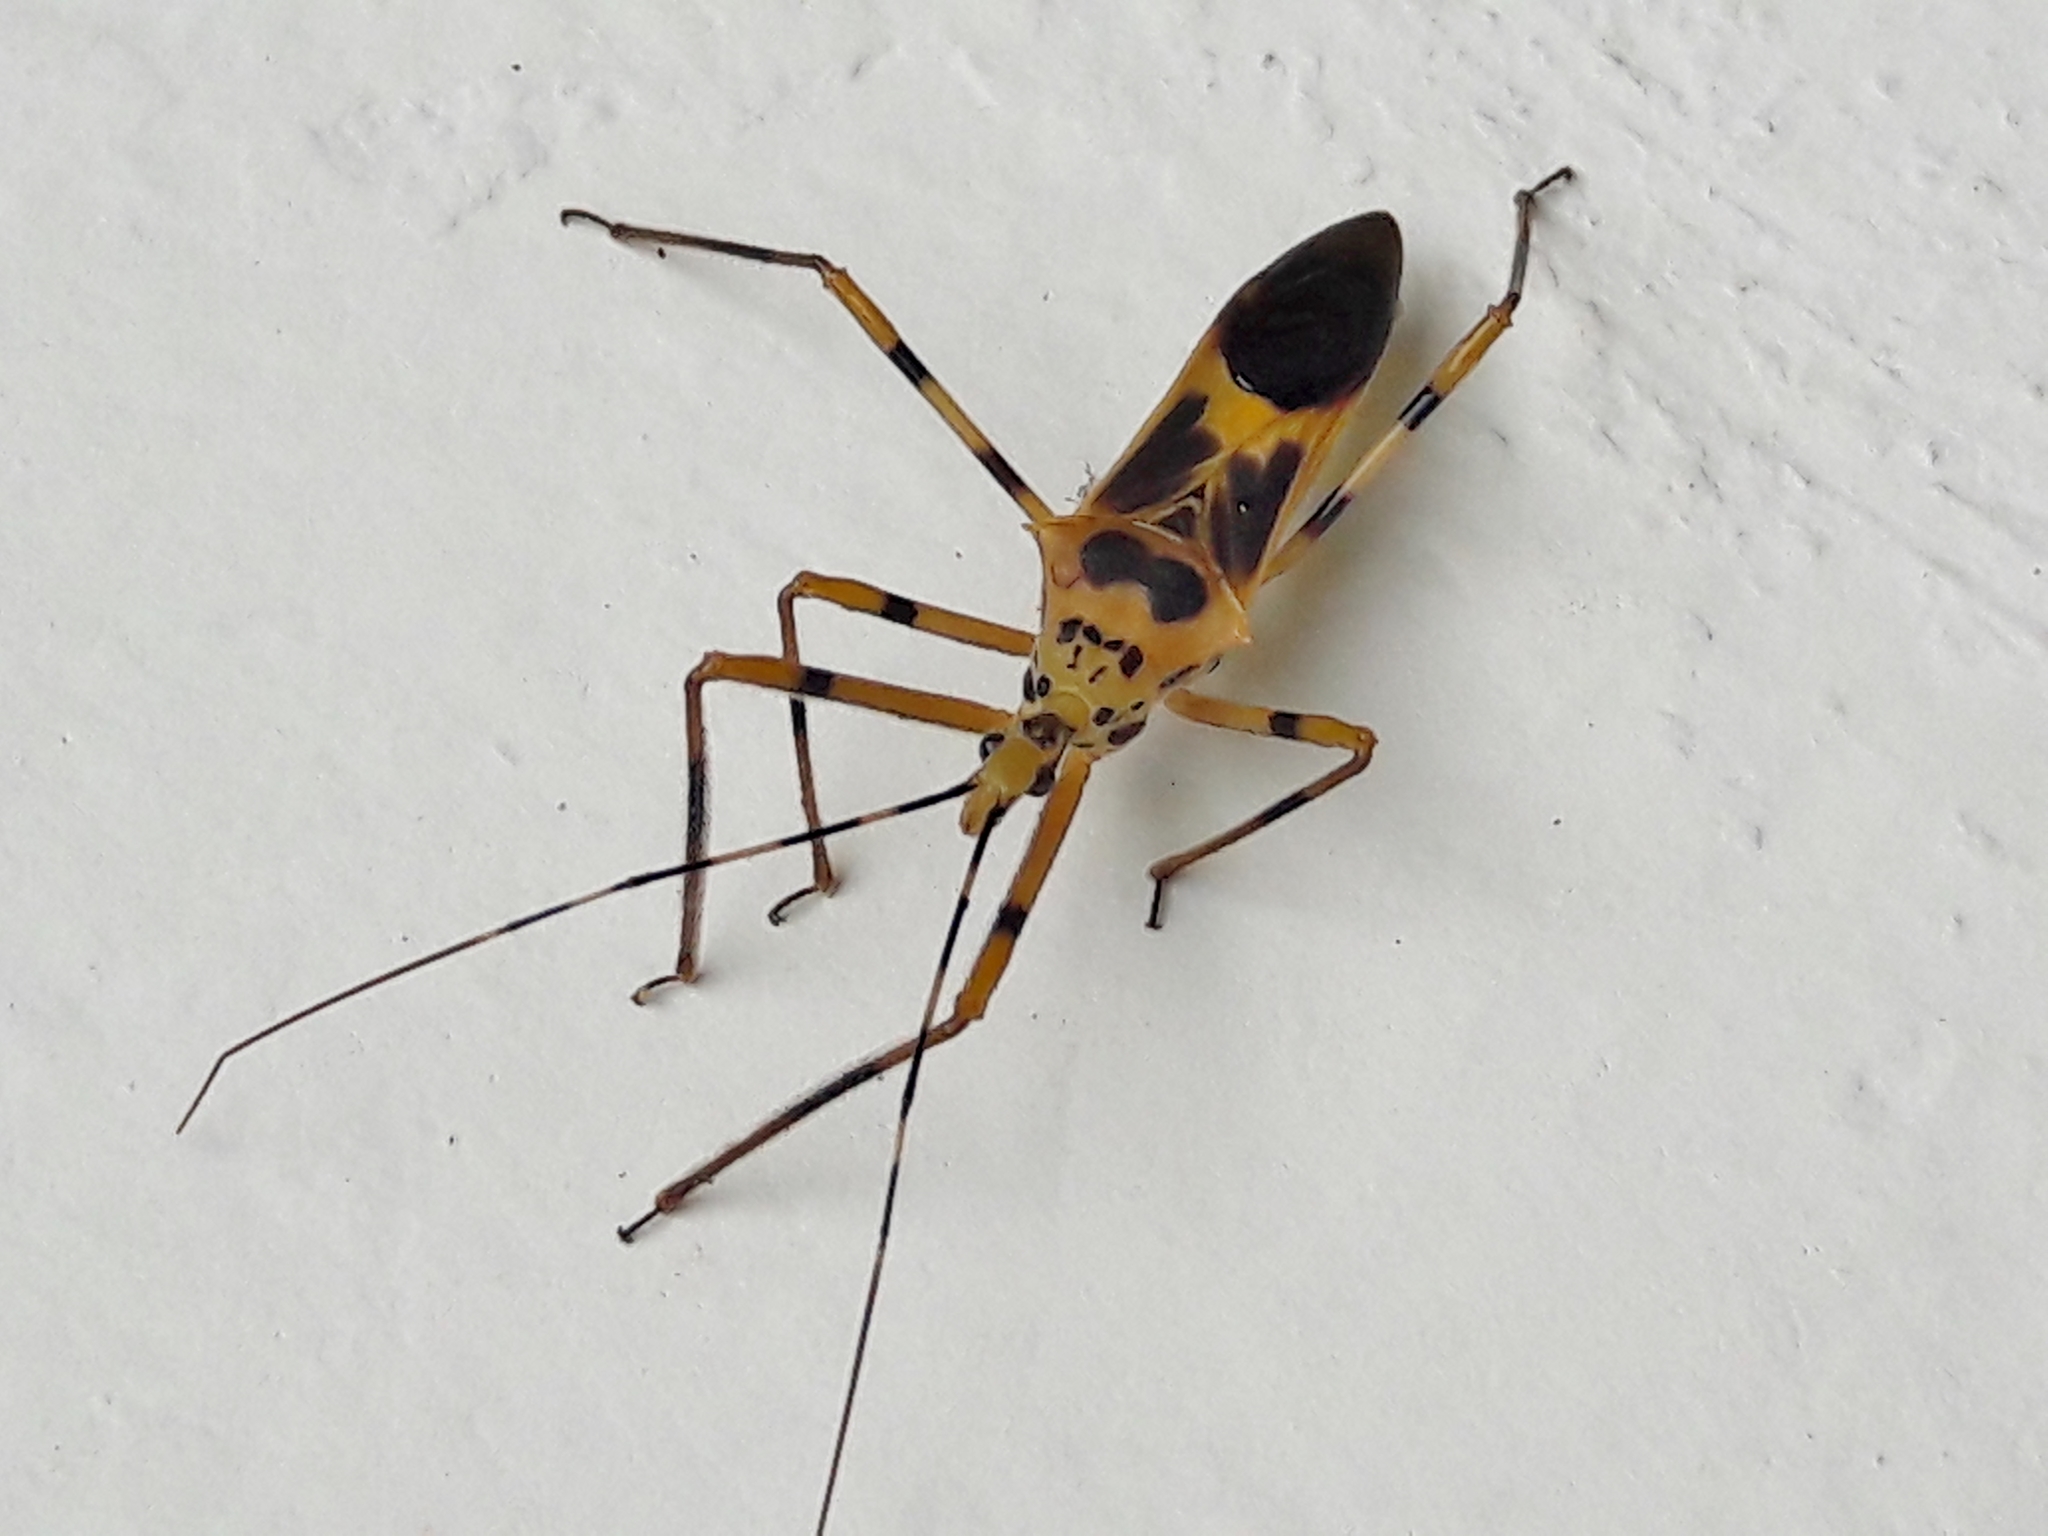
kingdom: Animalia
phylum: Arthropoda
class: Insecta
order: Hemiptera
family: Reduviidae
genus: Zelus
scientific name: Zelus armillatus
